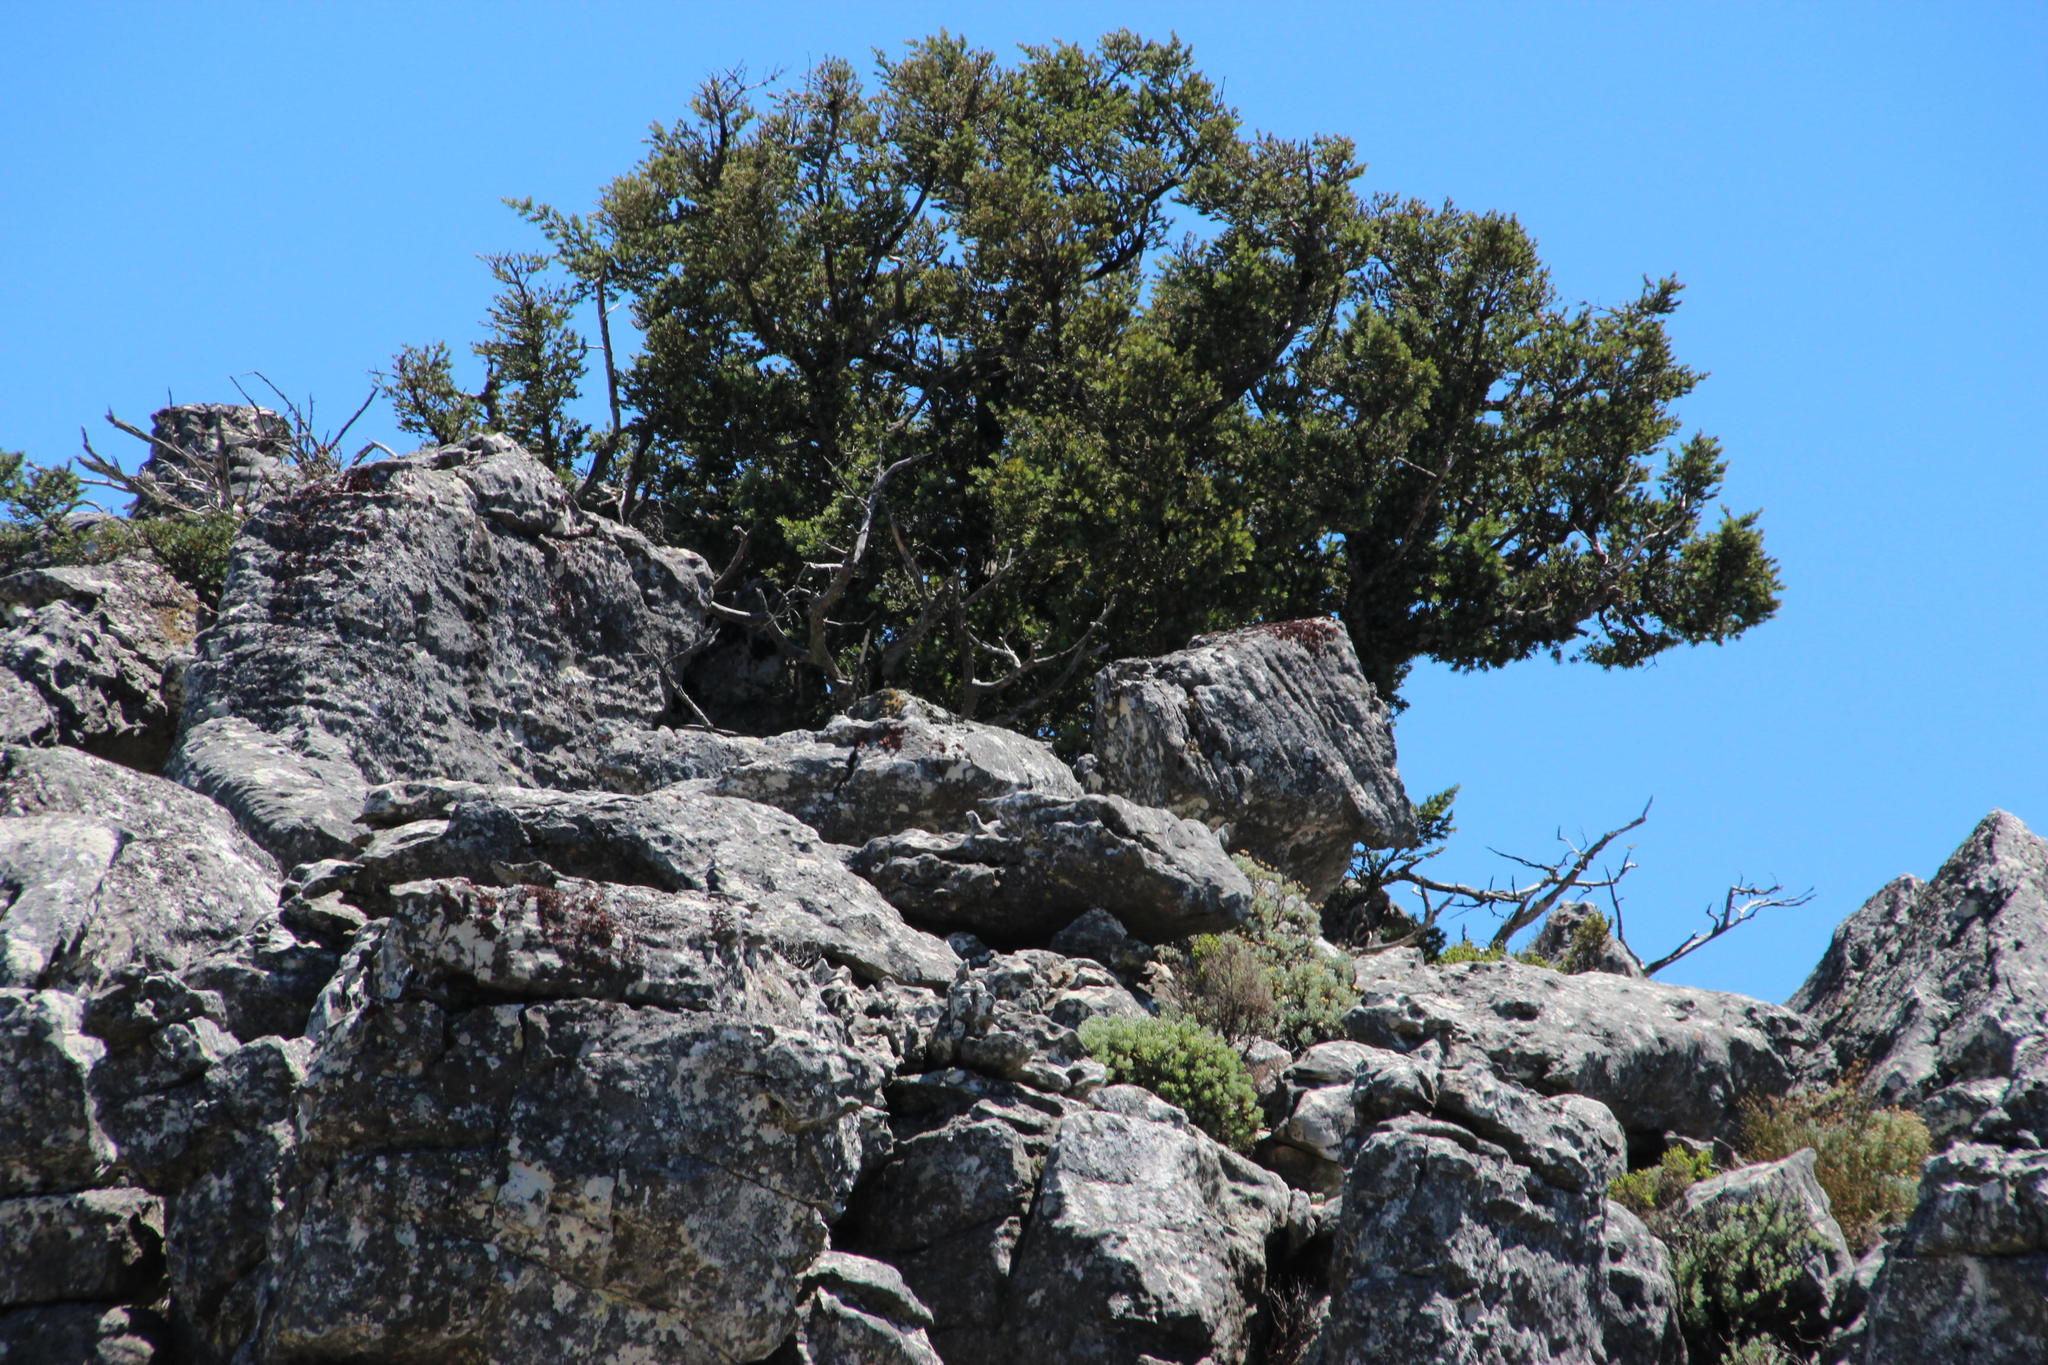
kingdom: Plantae
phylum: Tracheophyta
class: Pinopsida
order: Pinales
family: Podocarpaceae
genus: Podocarpus
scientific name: Podocarpus latifolius
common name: True yellowwood
